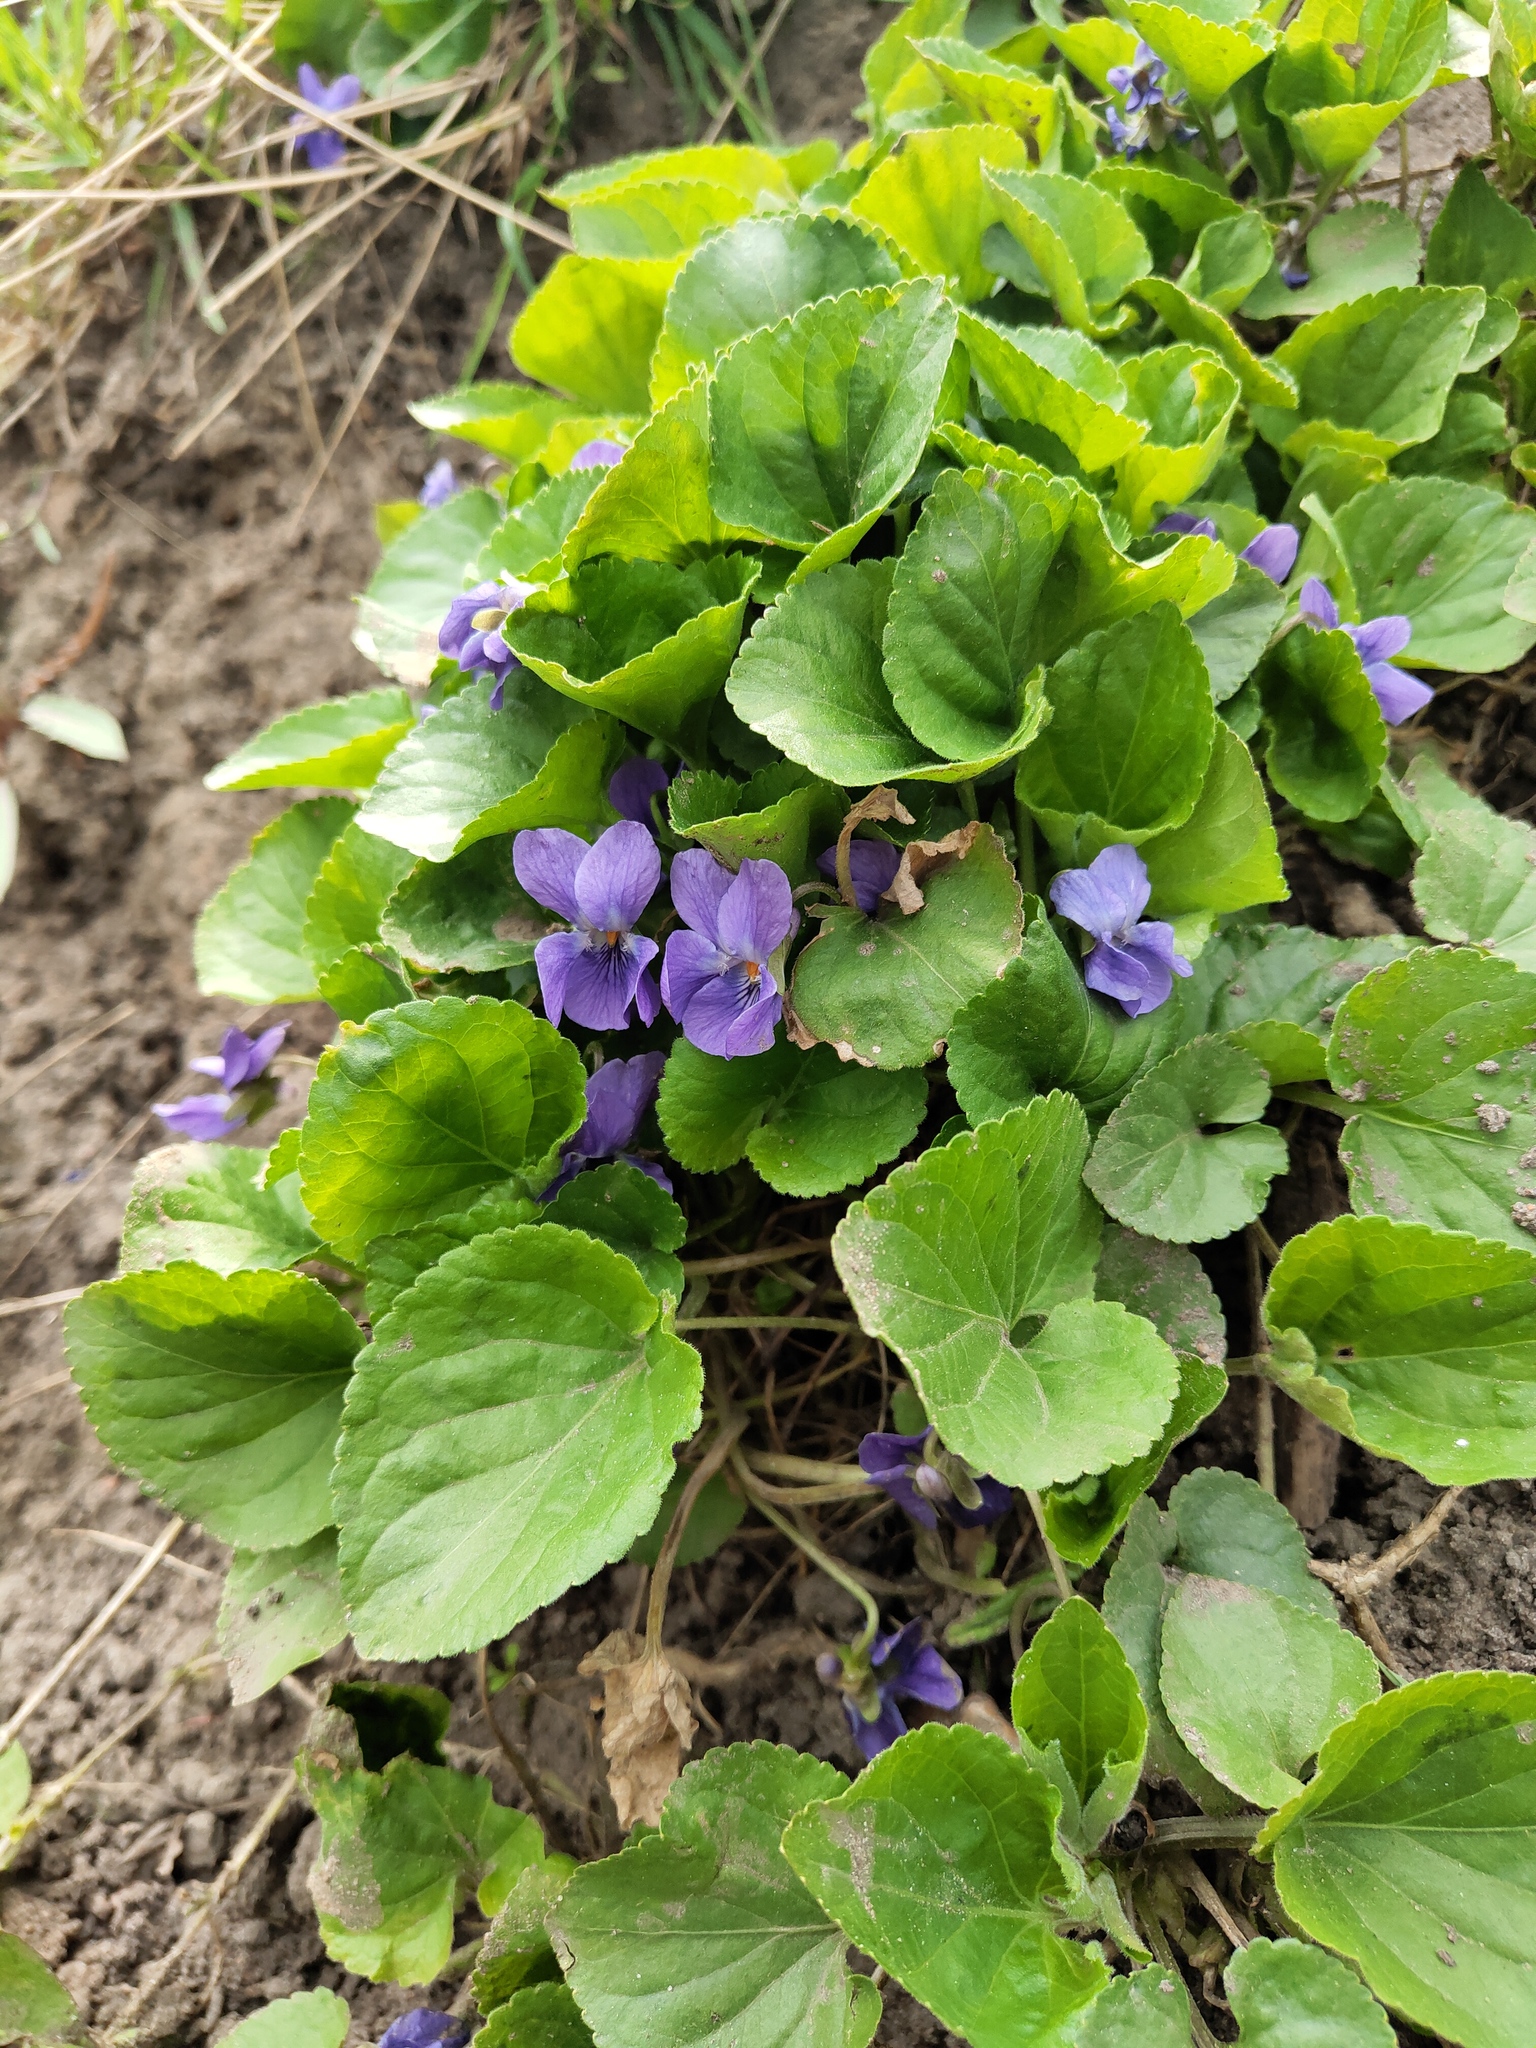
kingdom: Plantae
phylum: Tracheophyta
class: Magnoliopsida
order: Malpighiales
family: Violaceae
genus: Viola
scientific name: Viola odorata
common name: Sweet violet
